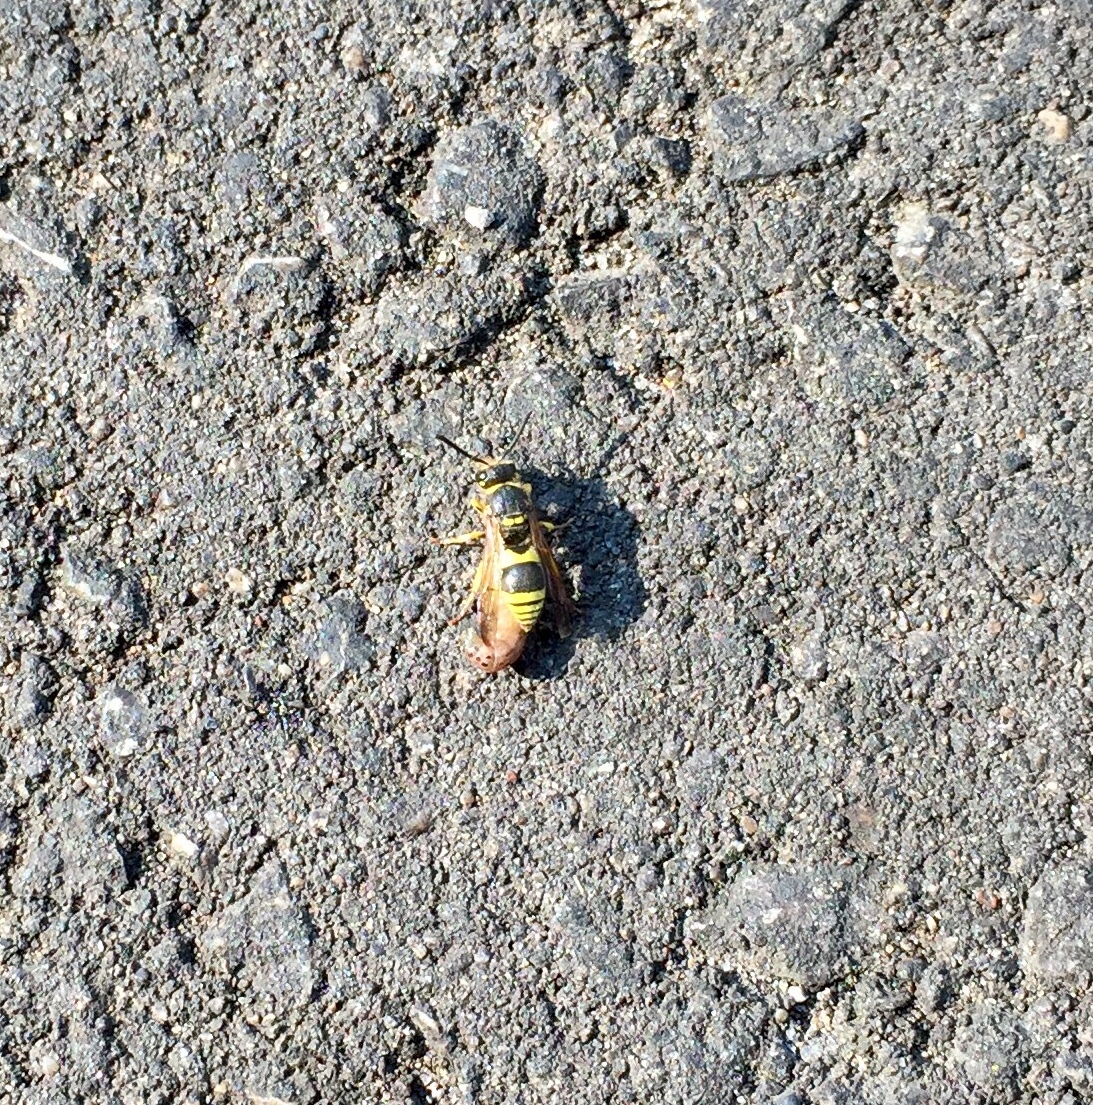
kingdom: Animalia
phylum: Arthropoda
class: Insecta
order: Hymenoptera
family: Vespidae
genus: Ancistrocerus
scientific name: Ancistrocerus
